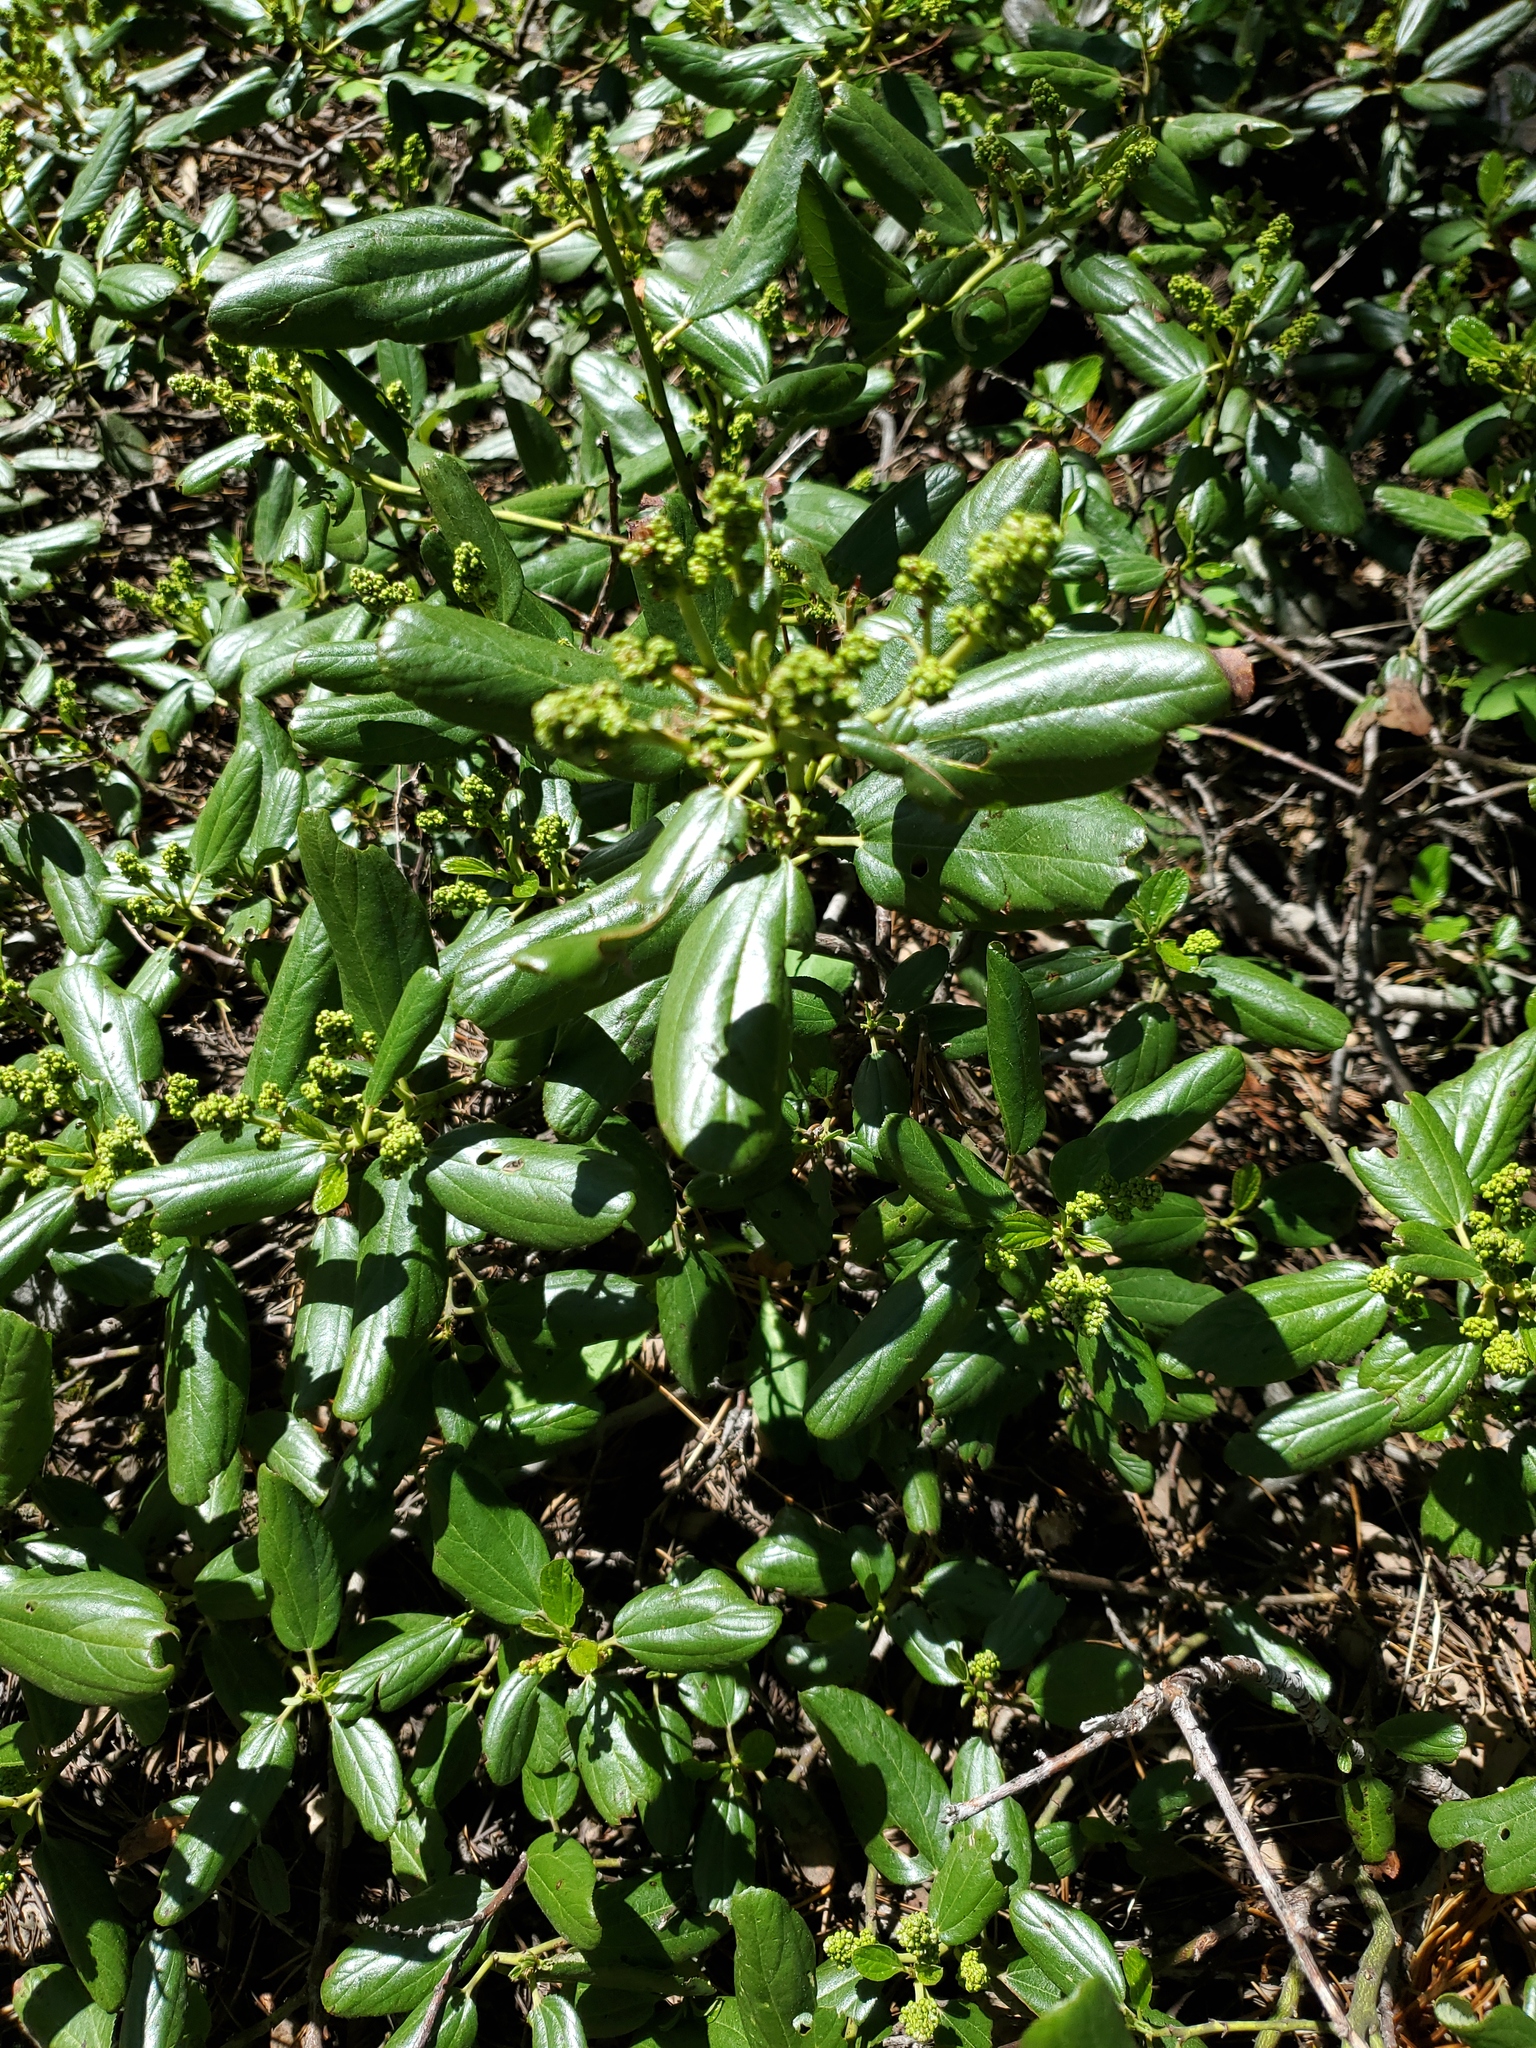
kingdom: Plantae
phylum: Tracheophyta
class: Magnoliopsida
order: Rosales
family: Rhamnaceae
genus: Ceanothus
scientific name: Ceanothus velutinus
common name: Snowbrush
